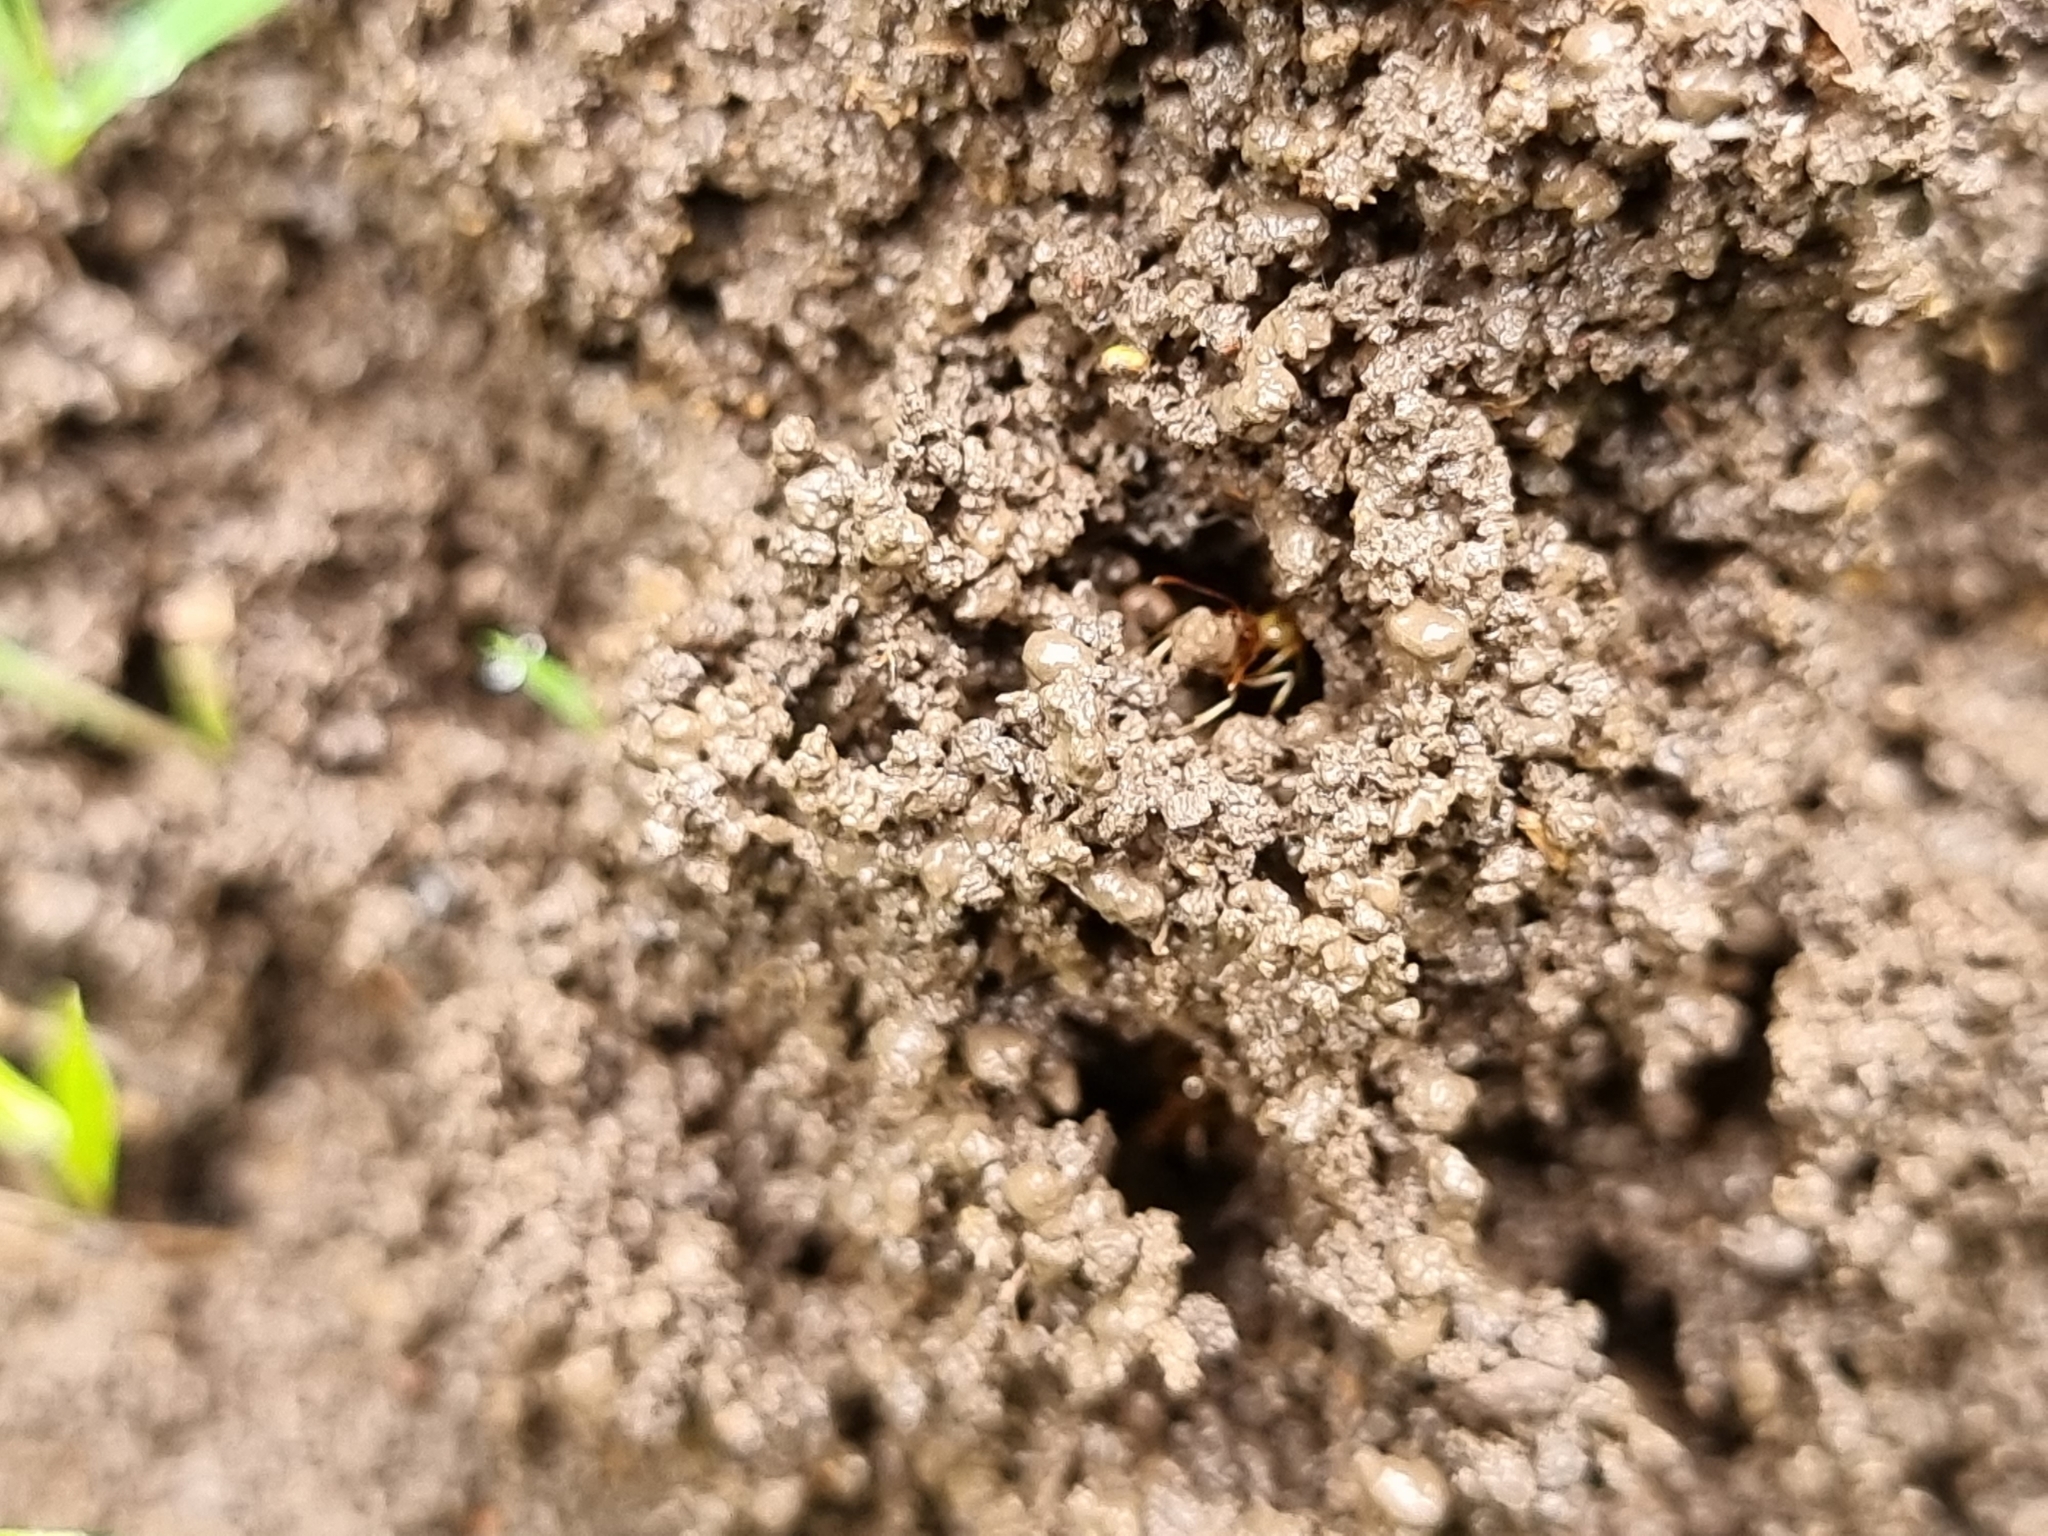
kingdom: Animalia
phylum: Arthropoda
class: Insecta
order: Hymenoptera
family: Formicidae
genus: Aphaenogaster
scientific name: Aphaenogaster pythia
